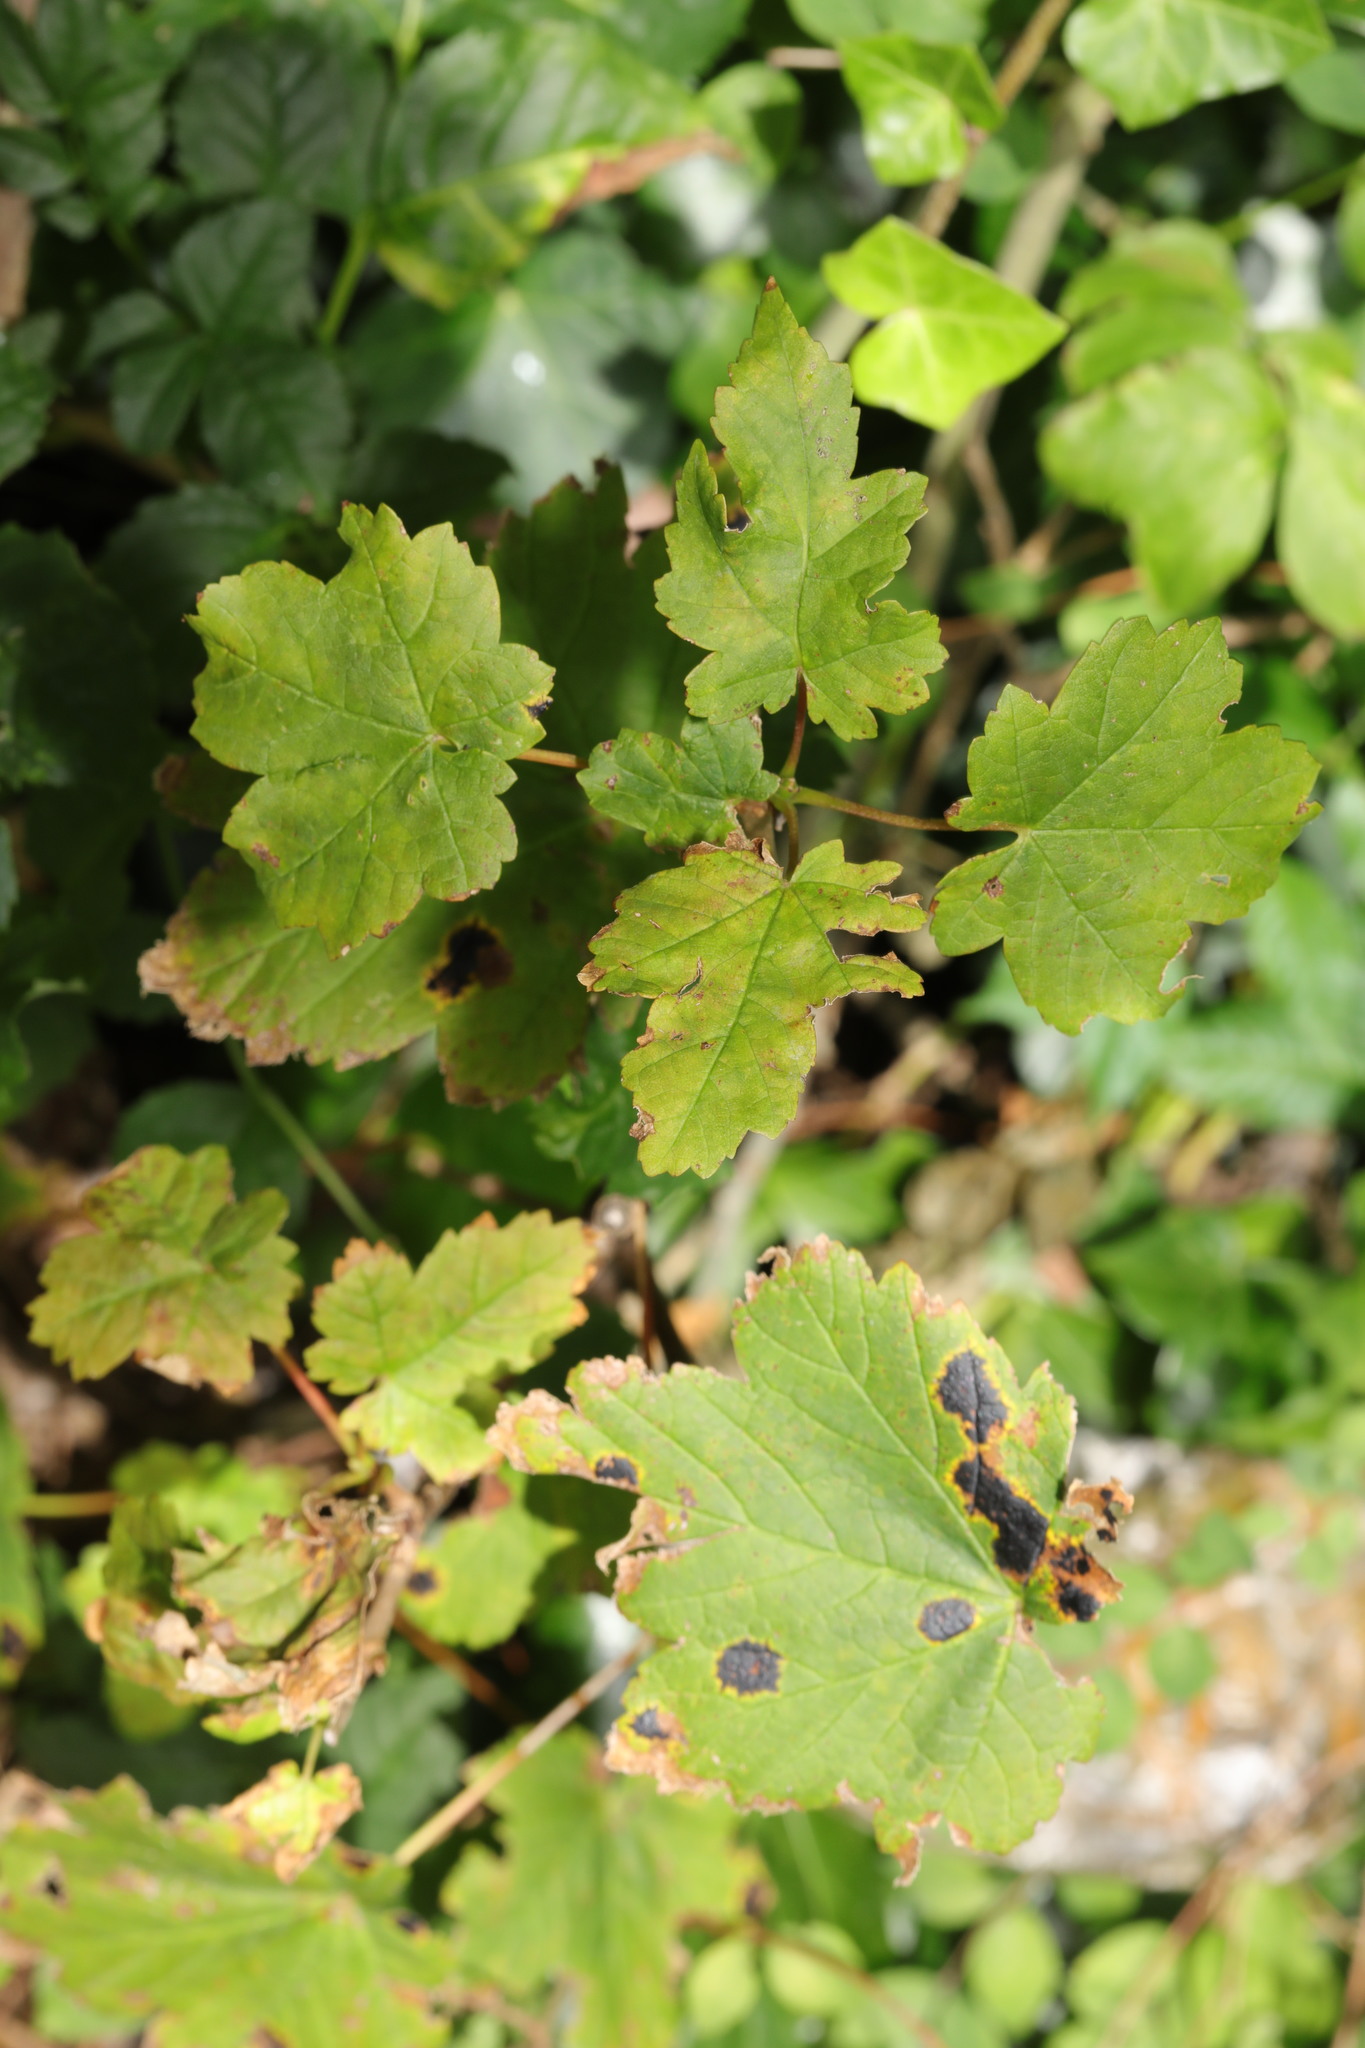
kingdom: Fungi
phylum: Ascomycota
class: Leotiomycetes
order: Rhytismatales
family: Rhytismataceae
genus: Rhytisma
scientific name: Rhytisma acerinum
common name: European tar spot
